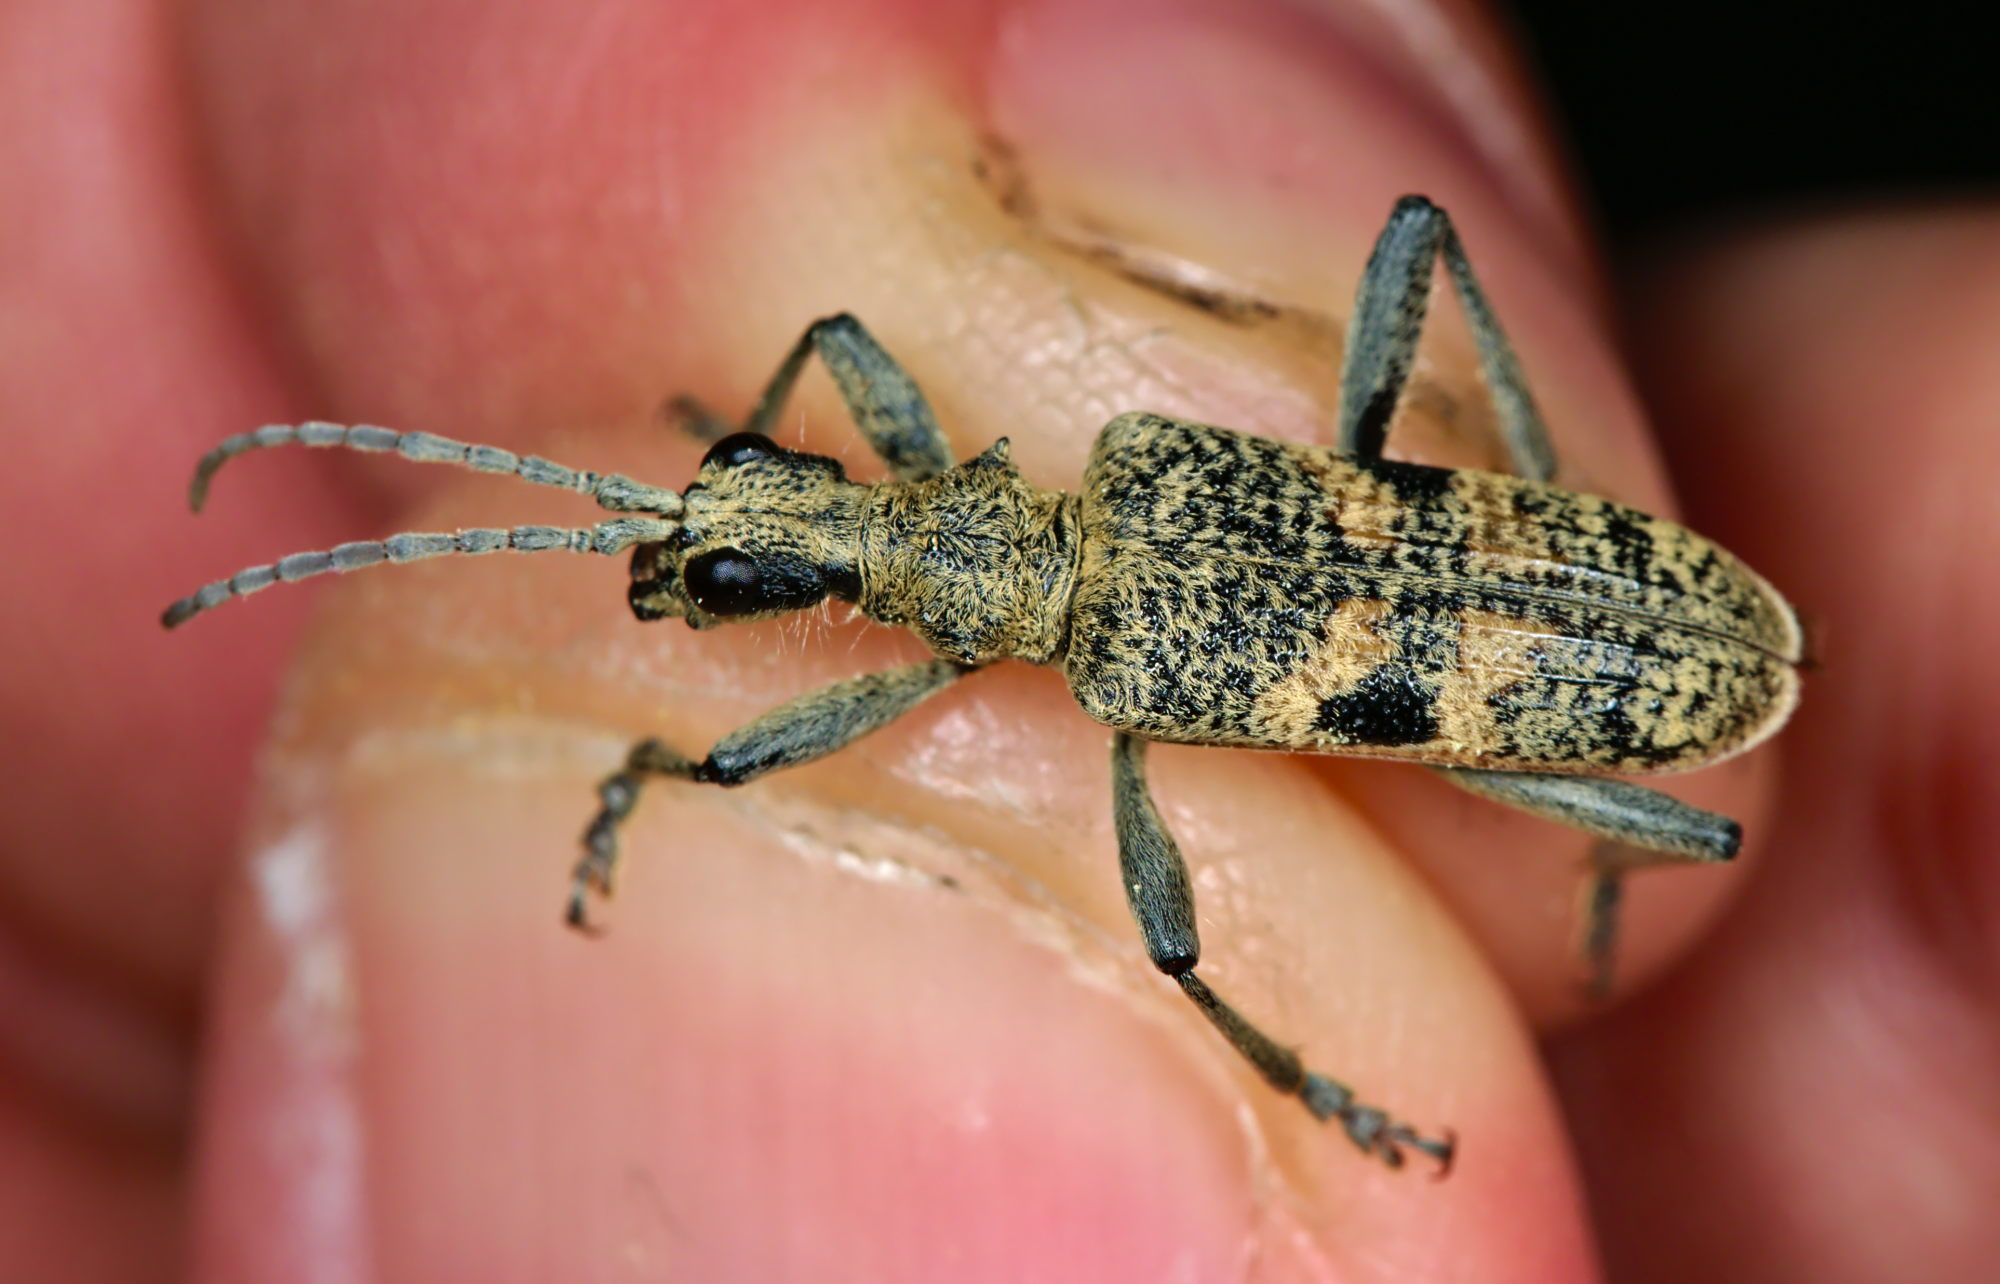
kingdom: Animalia
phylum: Arthropoda
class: Insecta
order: Coleoptera
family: Cerambycidae
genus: Rhagium
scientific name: Rhagium mordax
